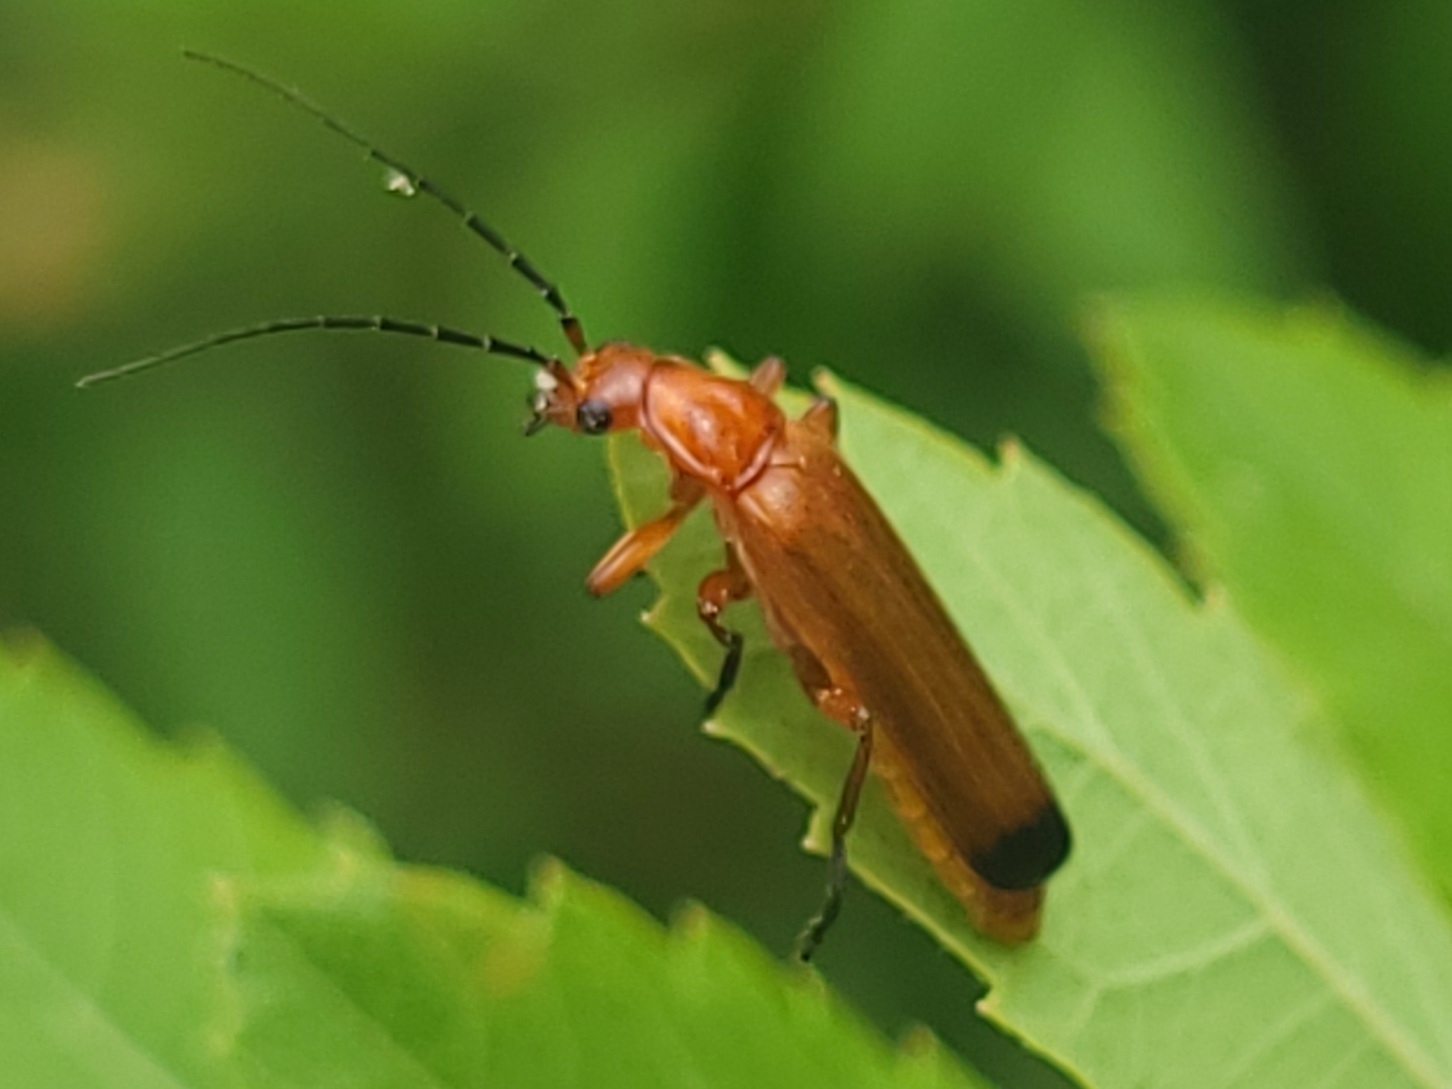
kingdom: Animalia
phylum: Arthropoda
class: Insecta
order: Coleoptera
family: Cantharidae
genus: Rhagonycha
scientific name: Rhagonycha fulva
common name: Common red soldier beetle
